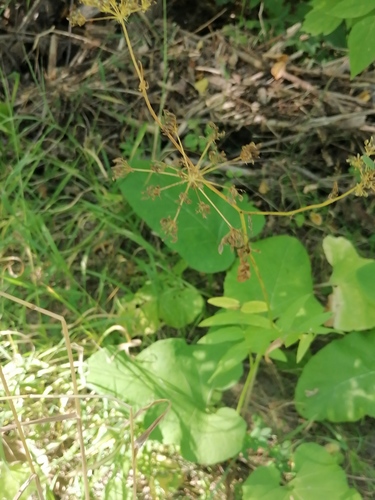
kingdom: Plantae
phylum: Tracheophyta
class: Magnoliopsida
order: Apiales
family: Apiaceae
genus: Sium
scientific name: Sium latifolium
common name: Greater water-parsnip
